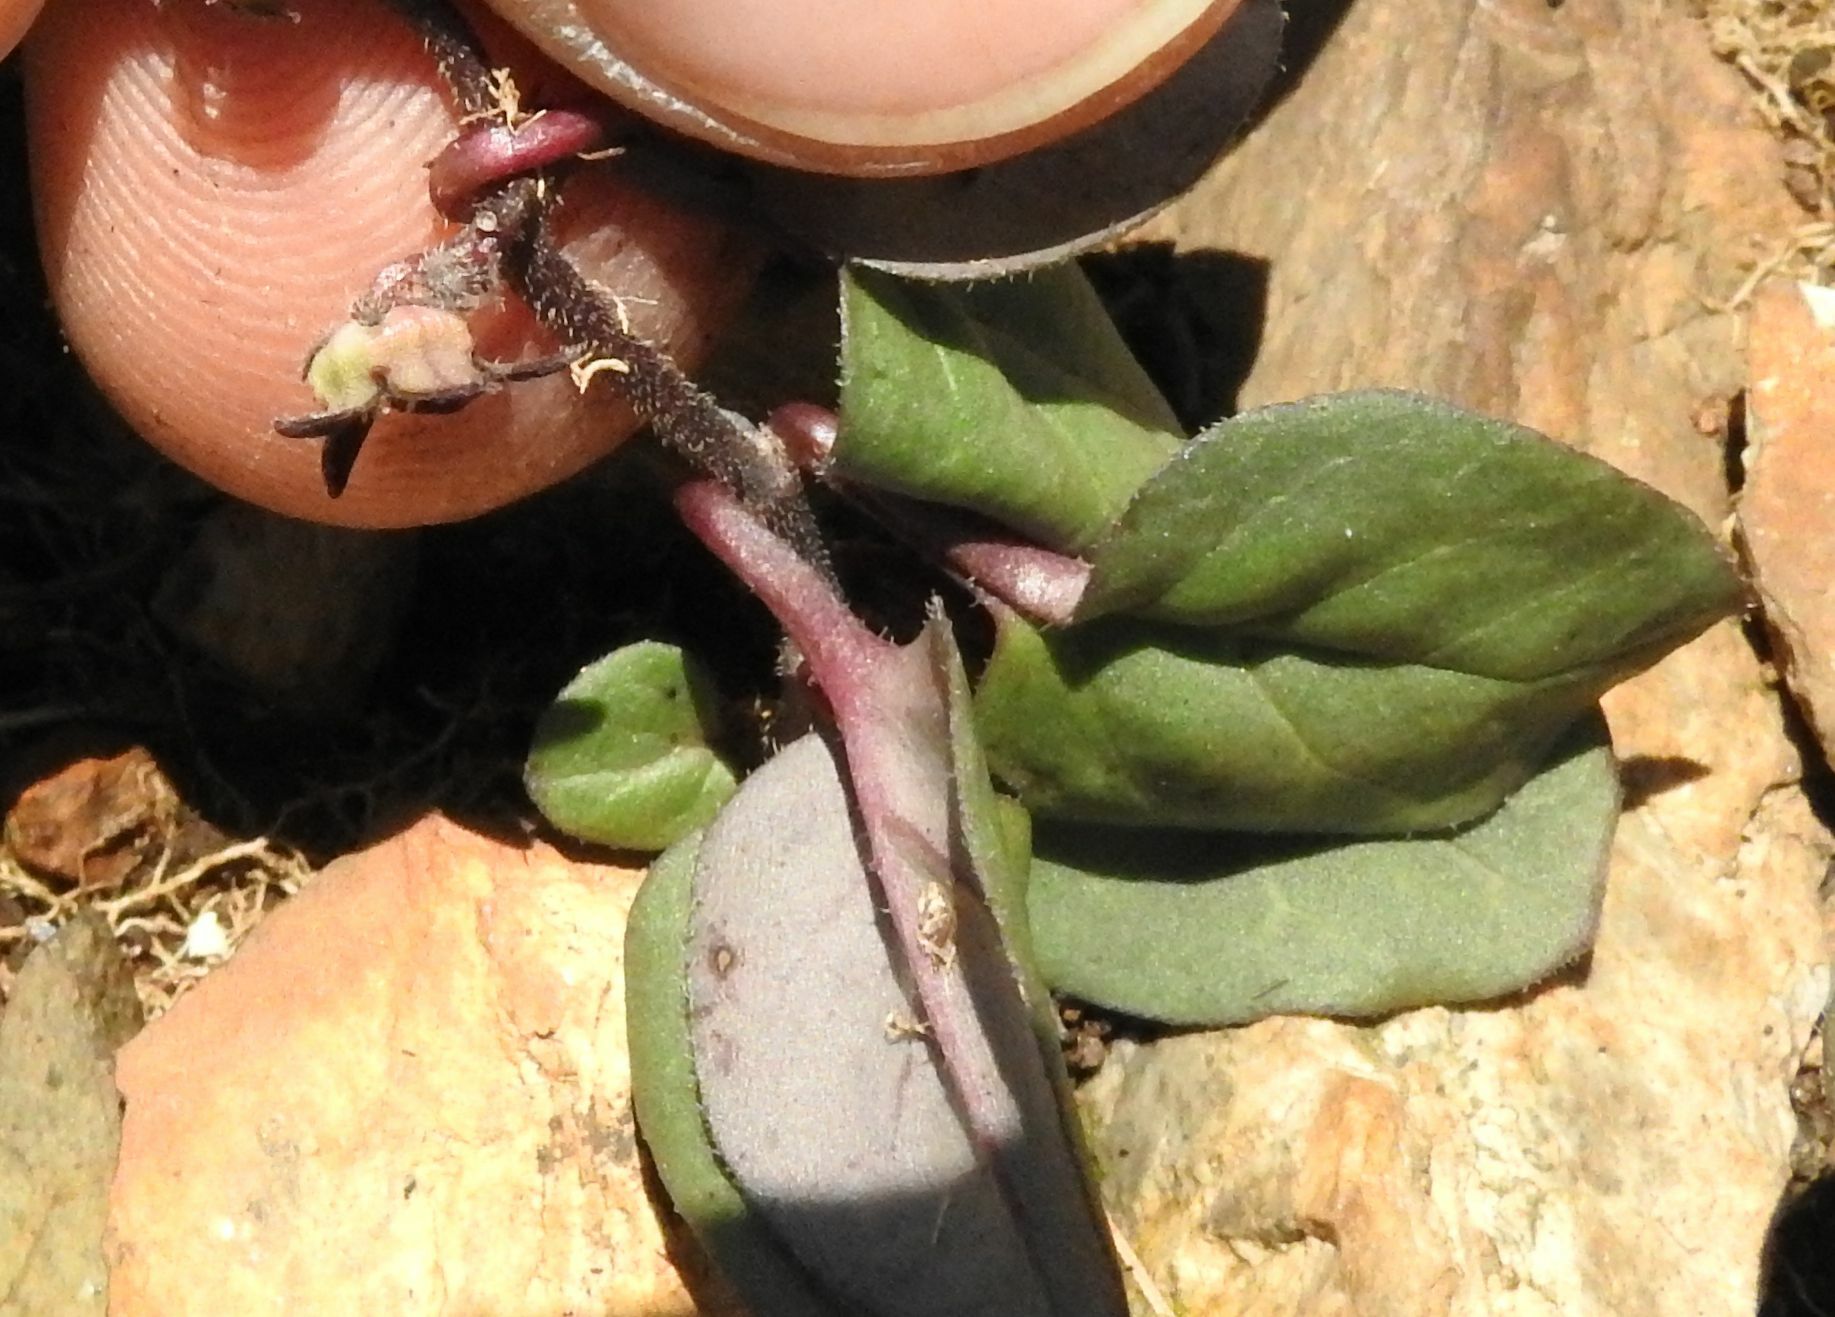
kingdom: Plantae
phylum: Tracheophyta
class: Magnoliopsida
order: Gentianales
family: Apocynaceae
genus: Ceropegia
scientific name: Ceropegia swazica
